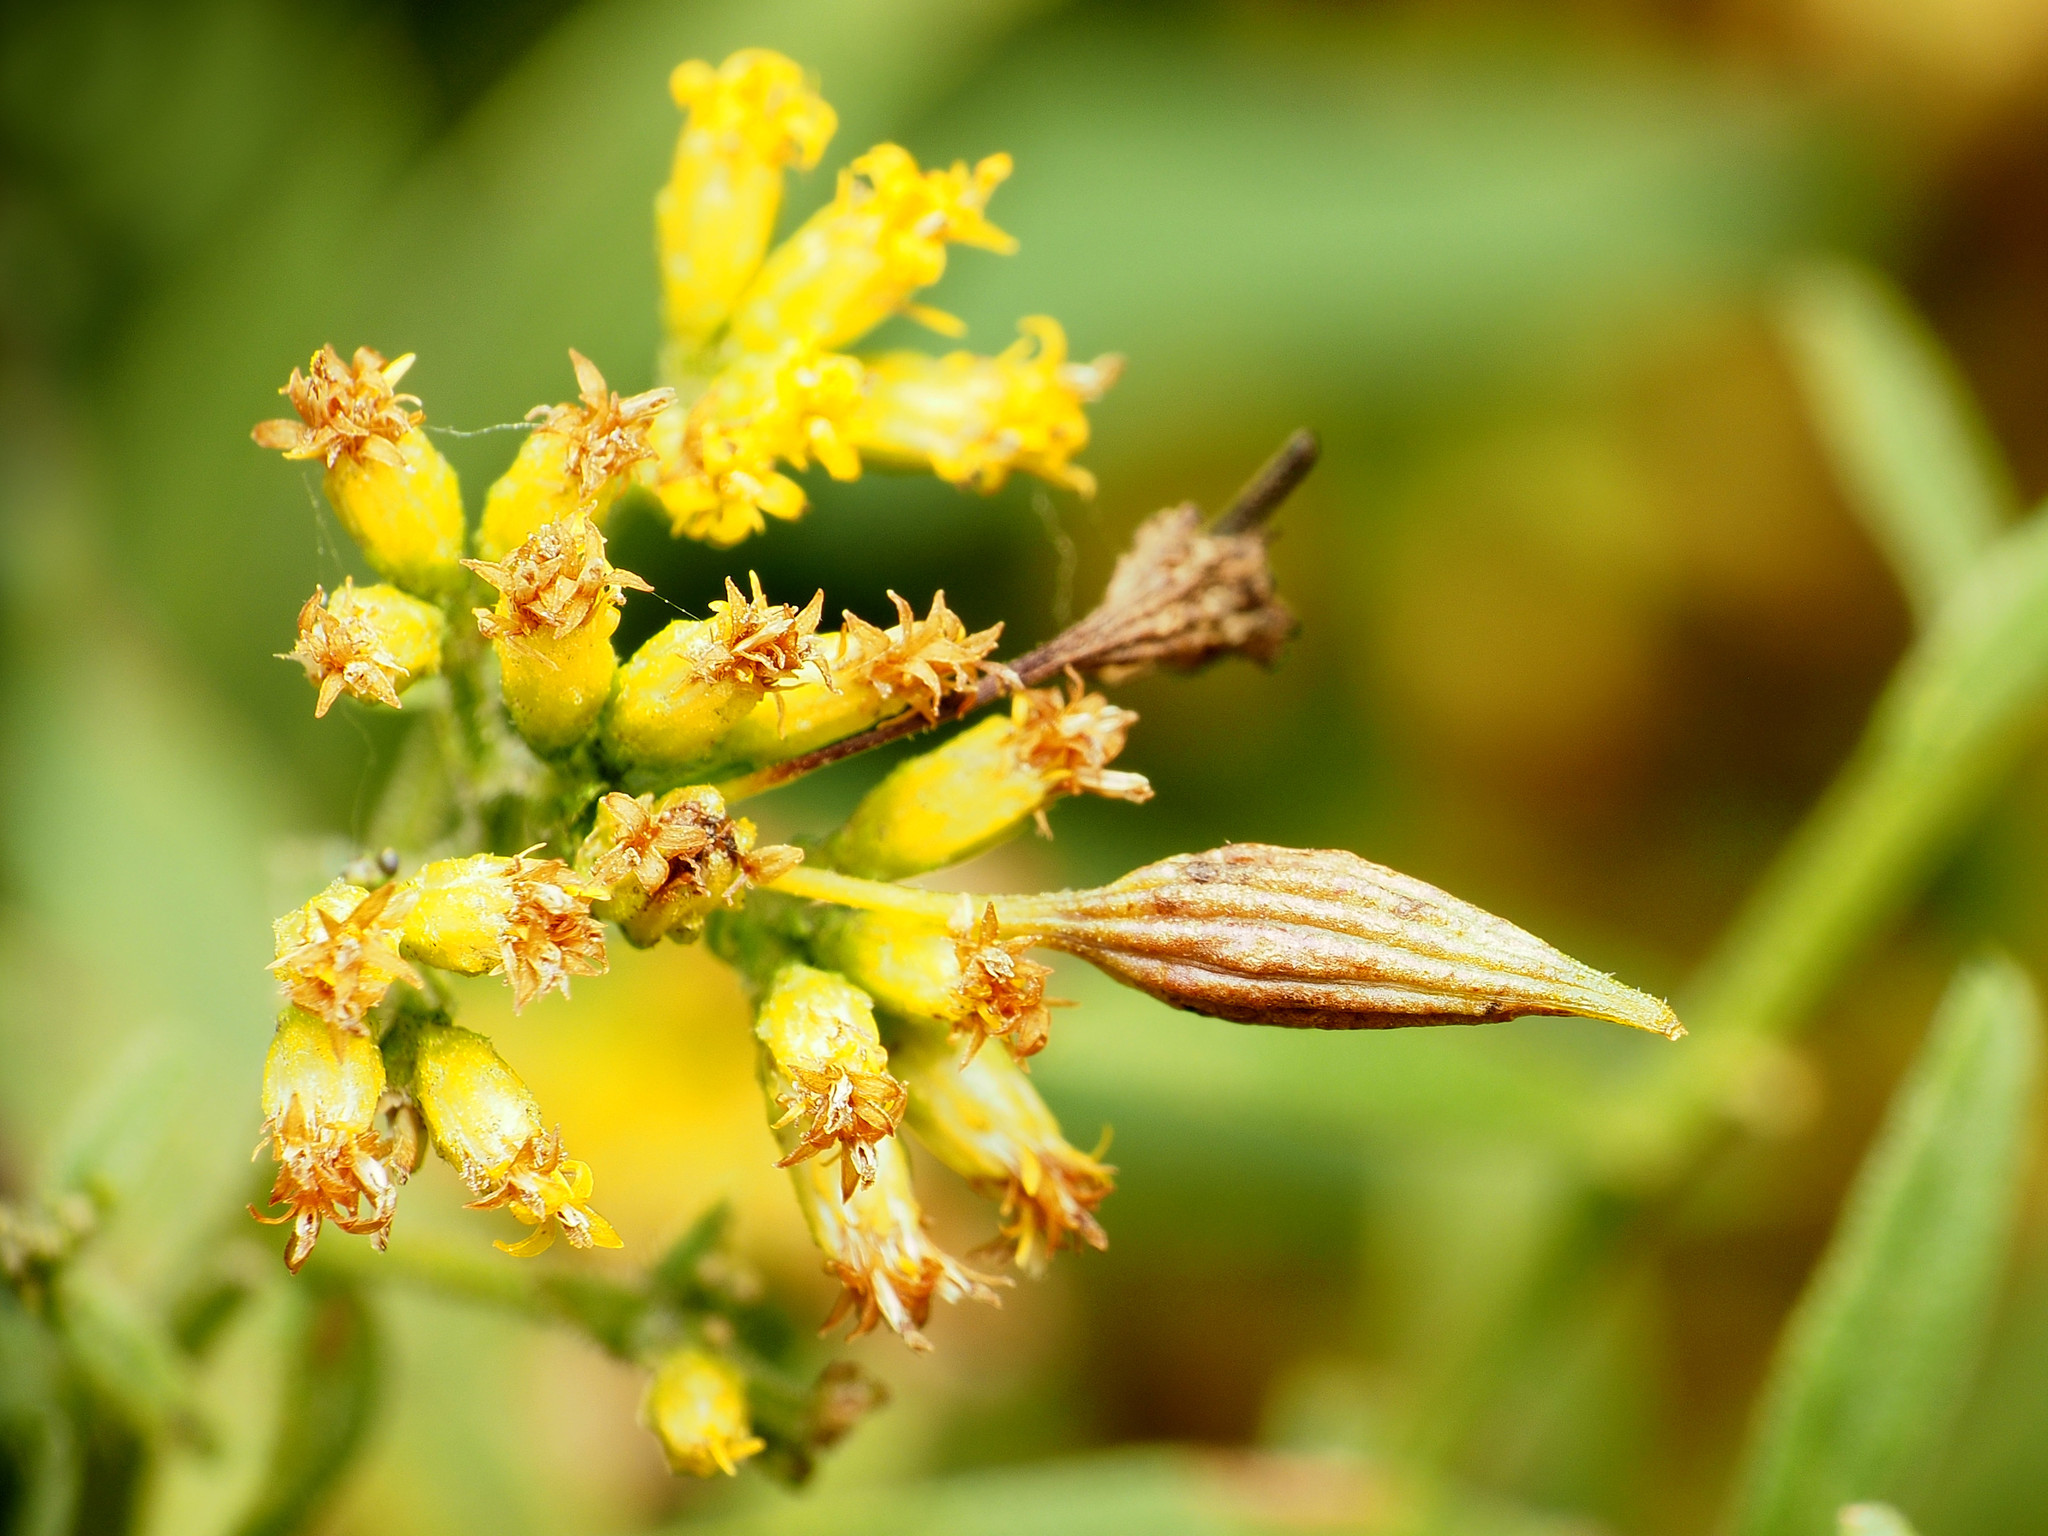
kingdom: Animalia
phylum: Arthropoda
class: Insecta
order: Diptera
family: Cecidomyiidae
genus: Rhopalomyia
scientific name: Rhopalomyia pedicellata
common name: Goldentop pedicellate gall midge
